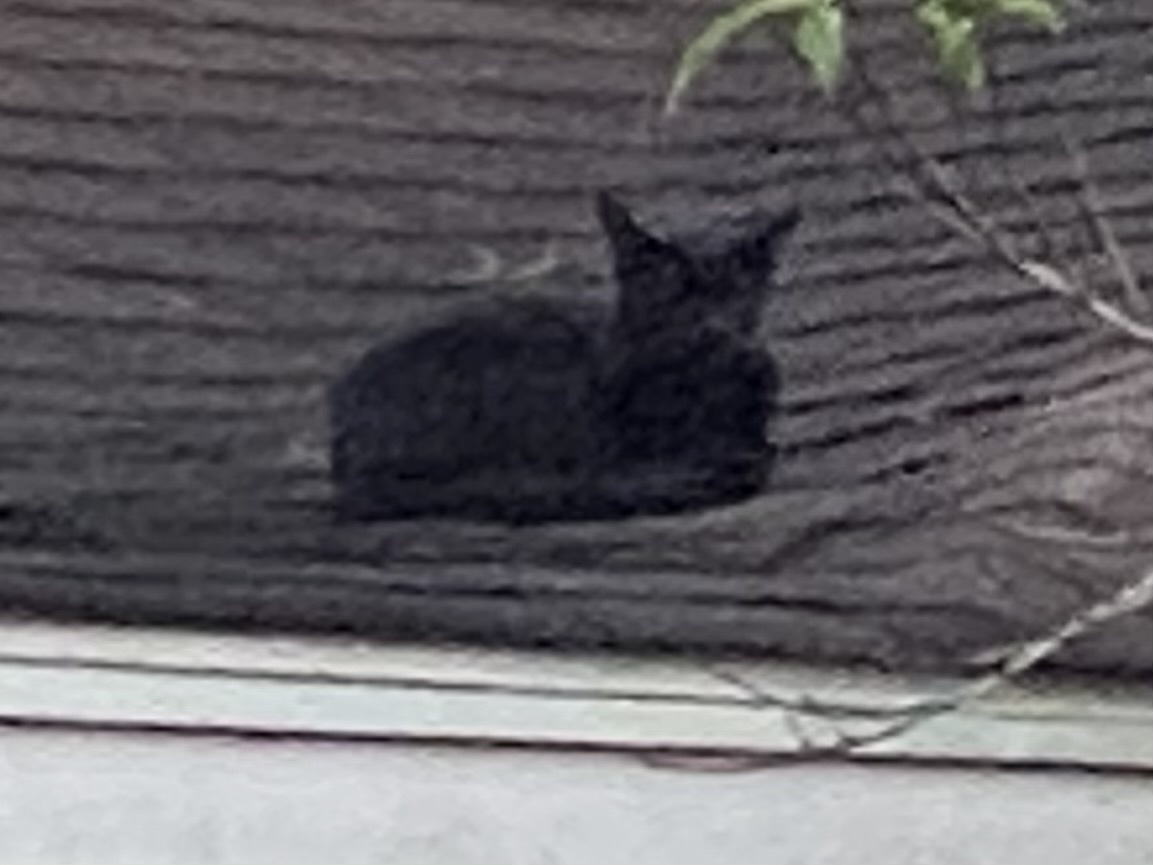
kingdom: Animalia
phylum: Chordata
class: Mammalia
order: Carnivora
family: Felidae
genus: Felis
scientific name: Felis catus
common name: Domestic cat
